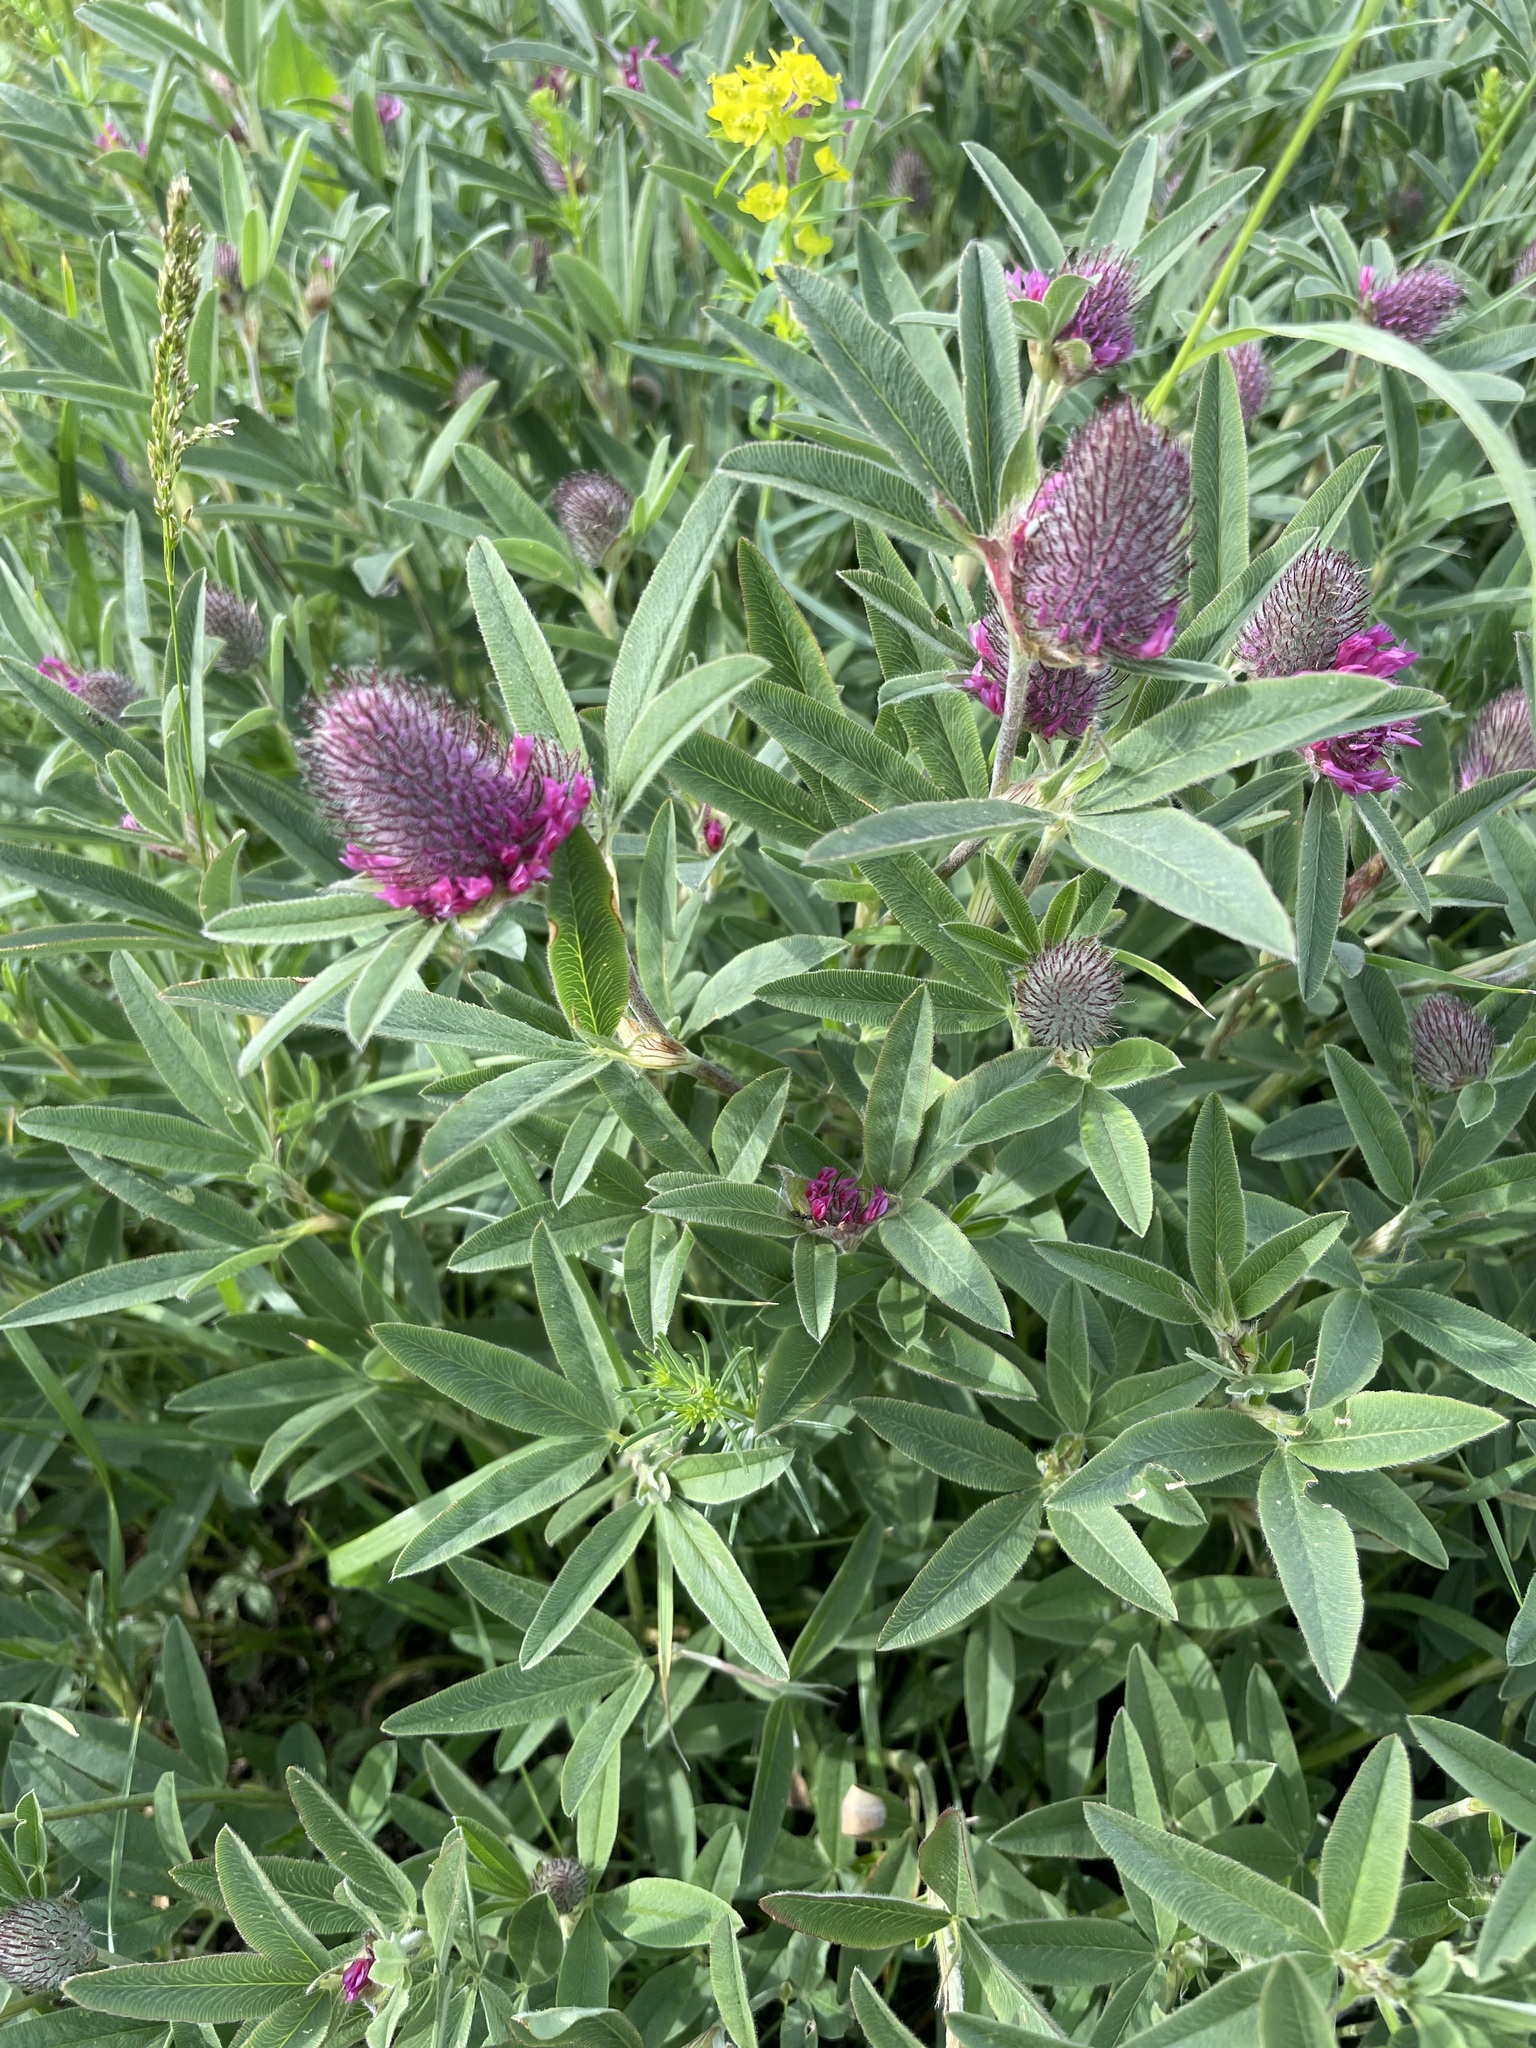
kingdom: Plantae
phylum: Tracheophyta
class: Magnoliopsida
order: Fabales
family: Fabaceae
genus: Trifolium
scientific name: Trifolium alpestre
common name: Owl-head clover
